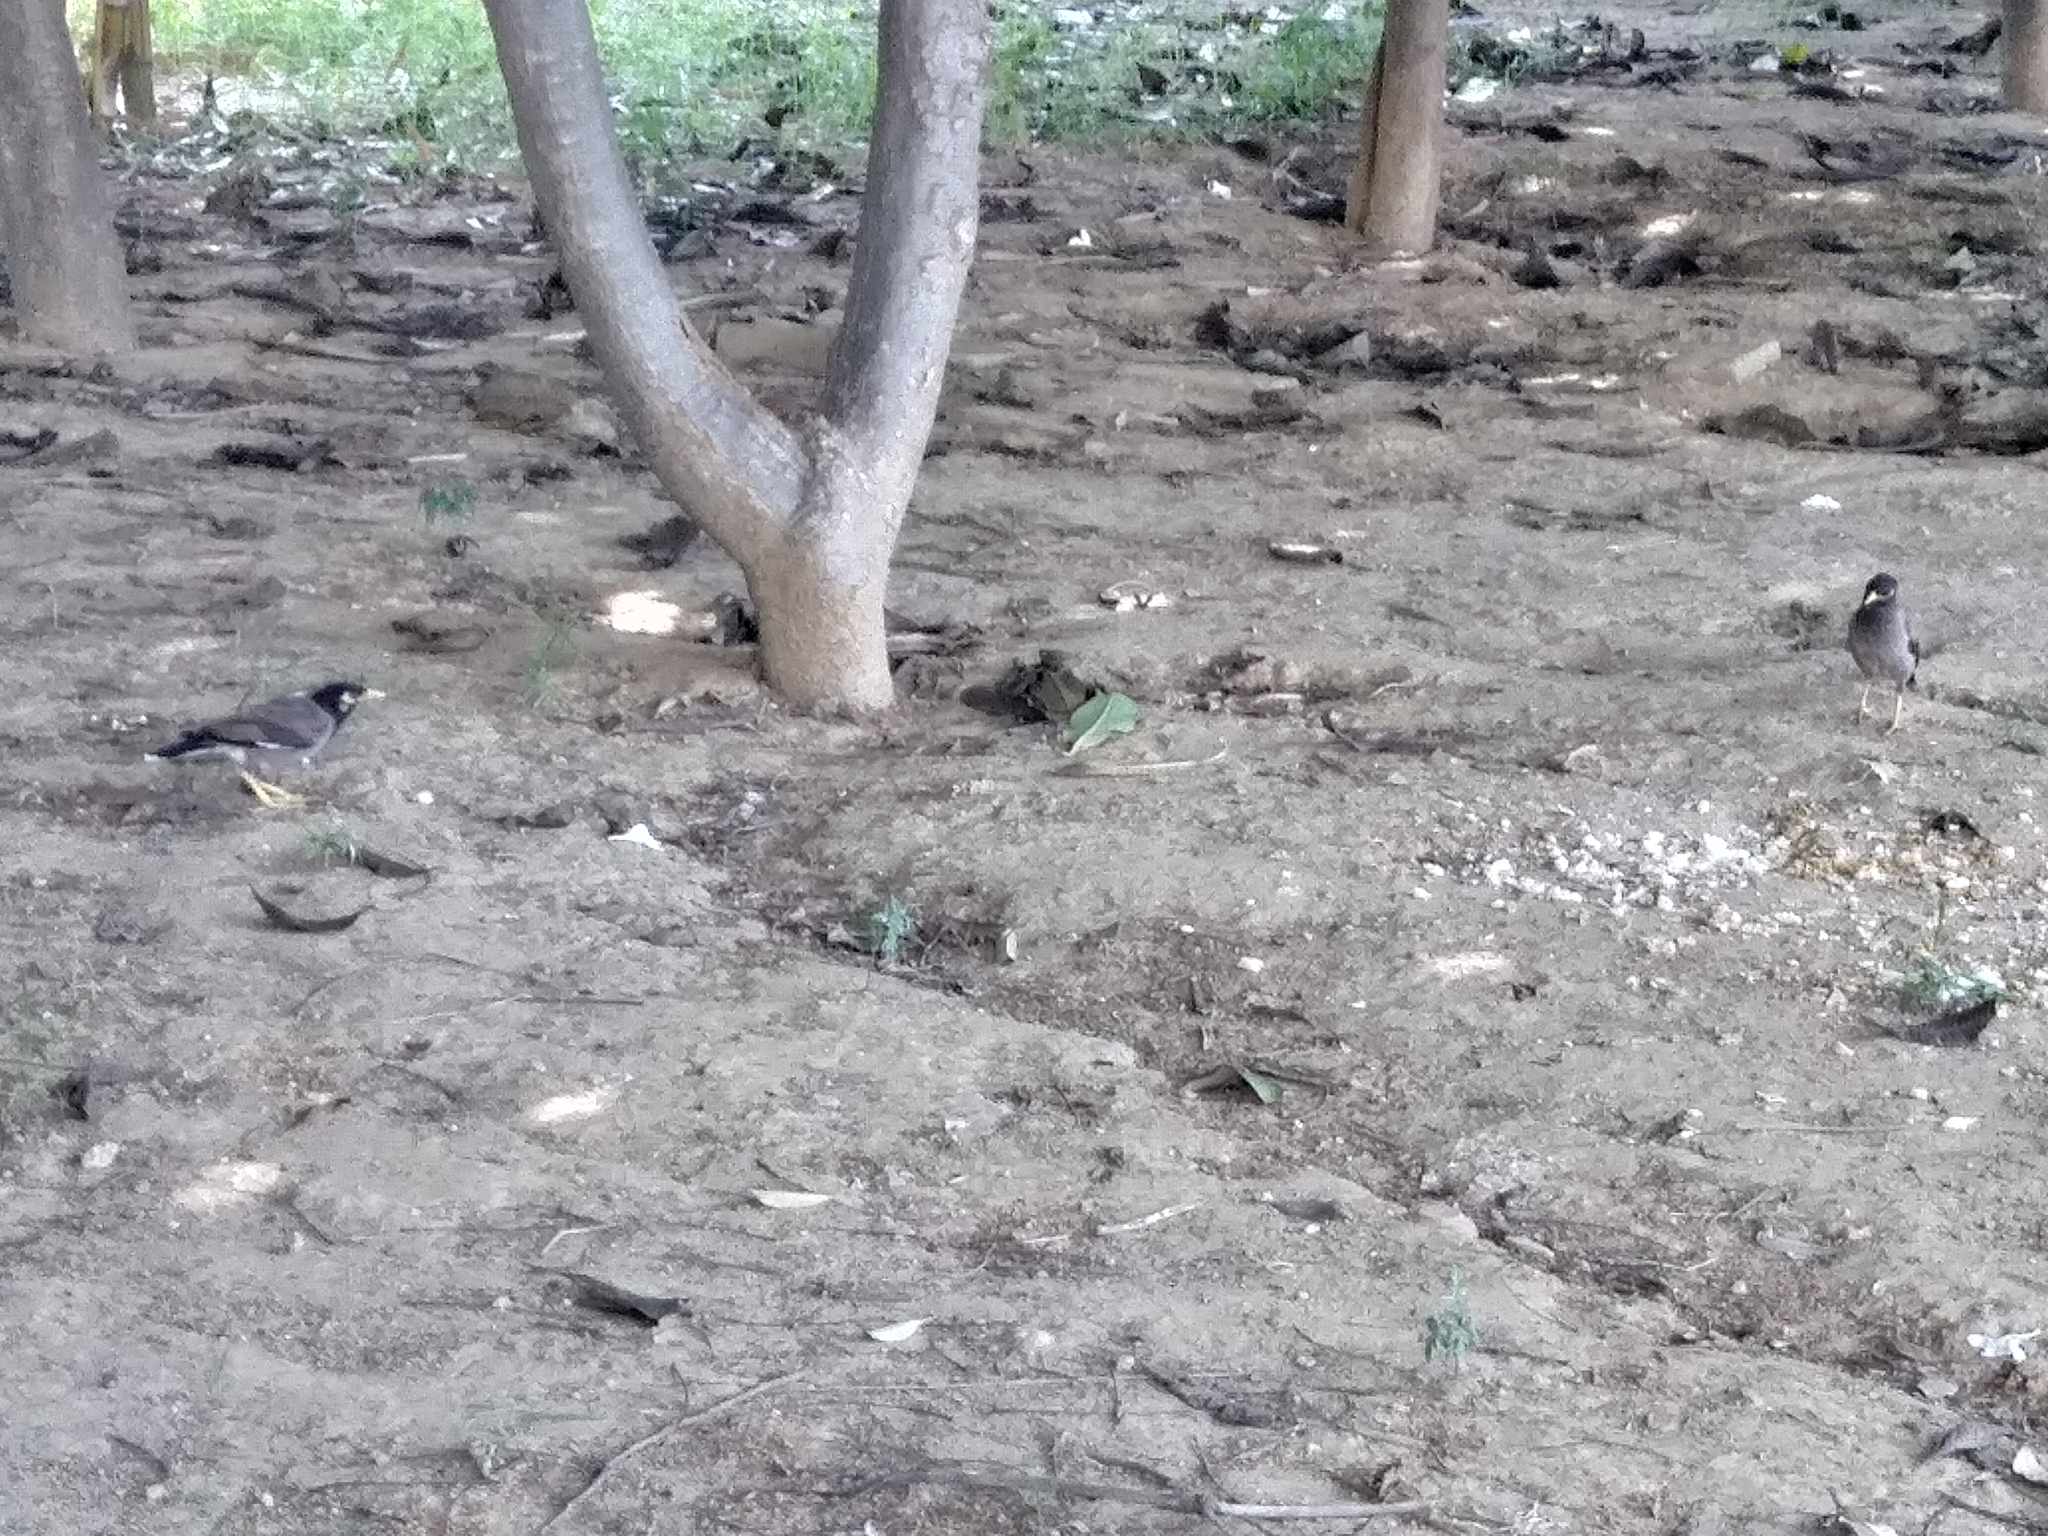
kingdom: Animalia
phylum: Chordata
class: Aves
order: Passeriformes
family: Sturnidae
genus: Acridotheres
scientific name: Acridotheres tristis
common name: Common myna
